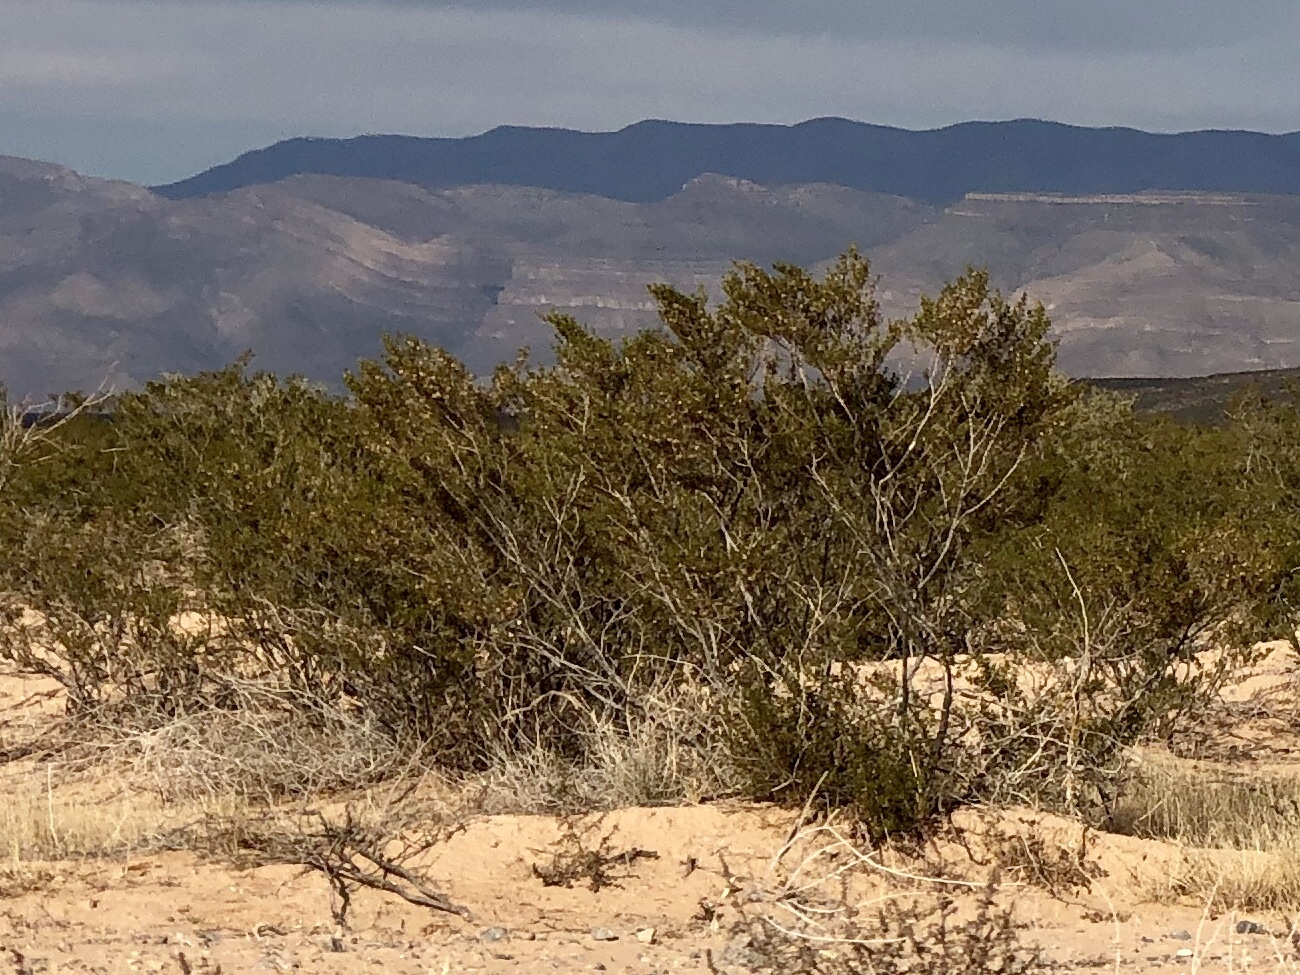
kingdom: Plantae
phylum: Tracheophyta
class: Magnoliopsida
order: Zygophyllales
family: Zygophyllaceae
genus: Larrea
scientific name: Larrea tridentata
